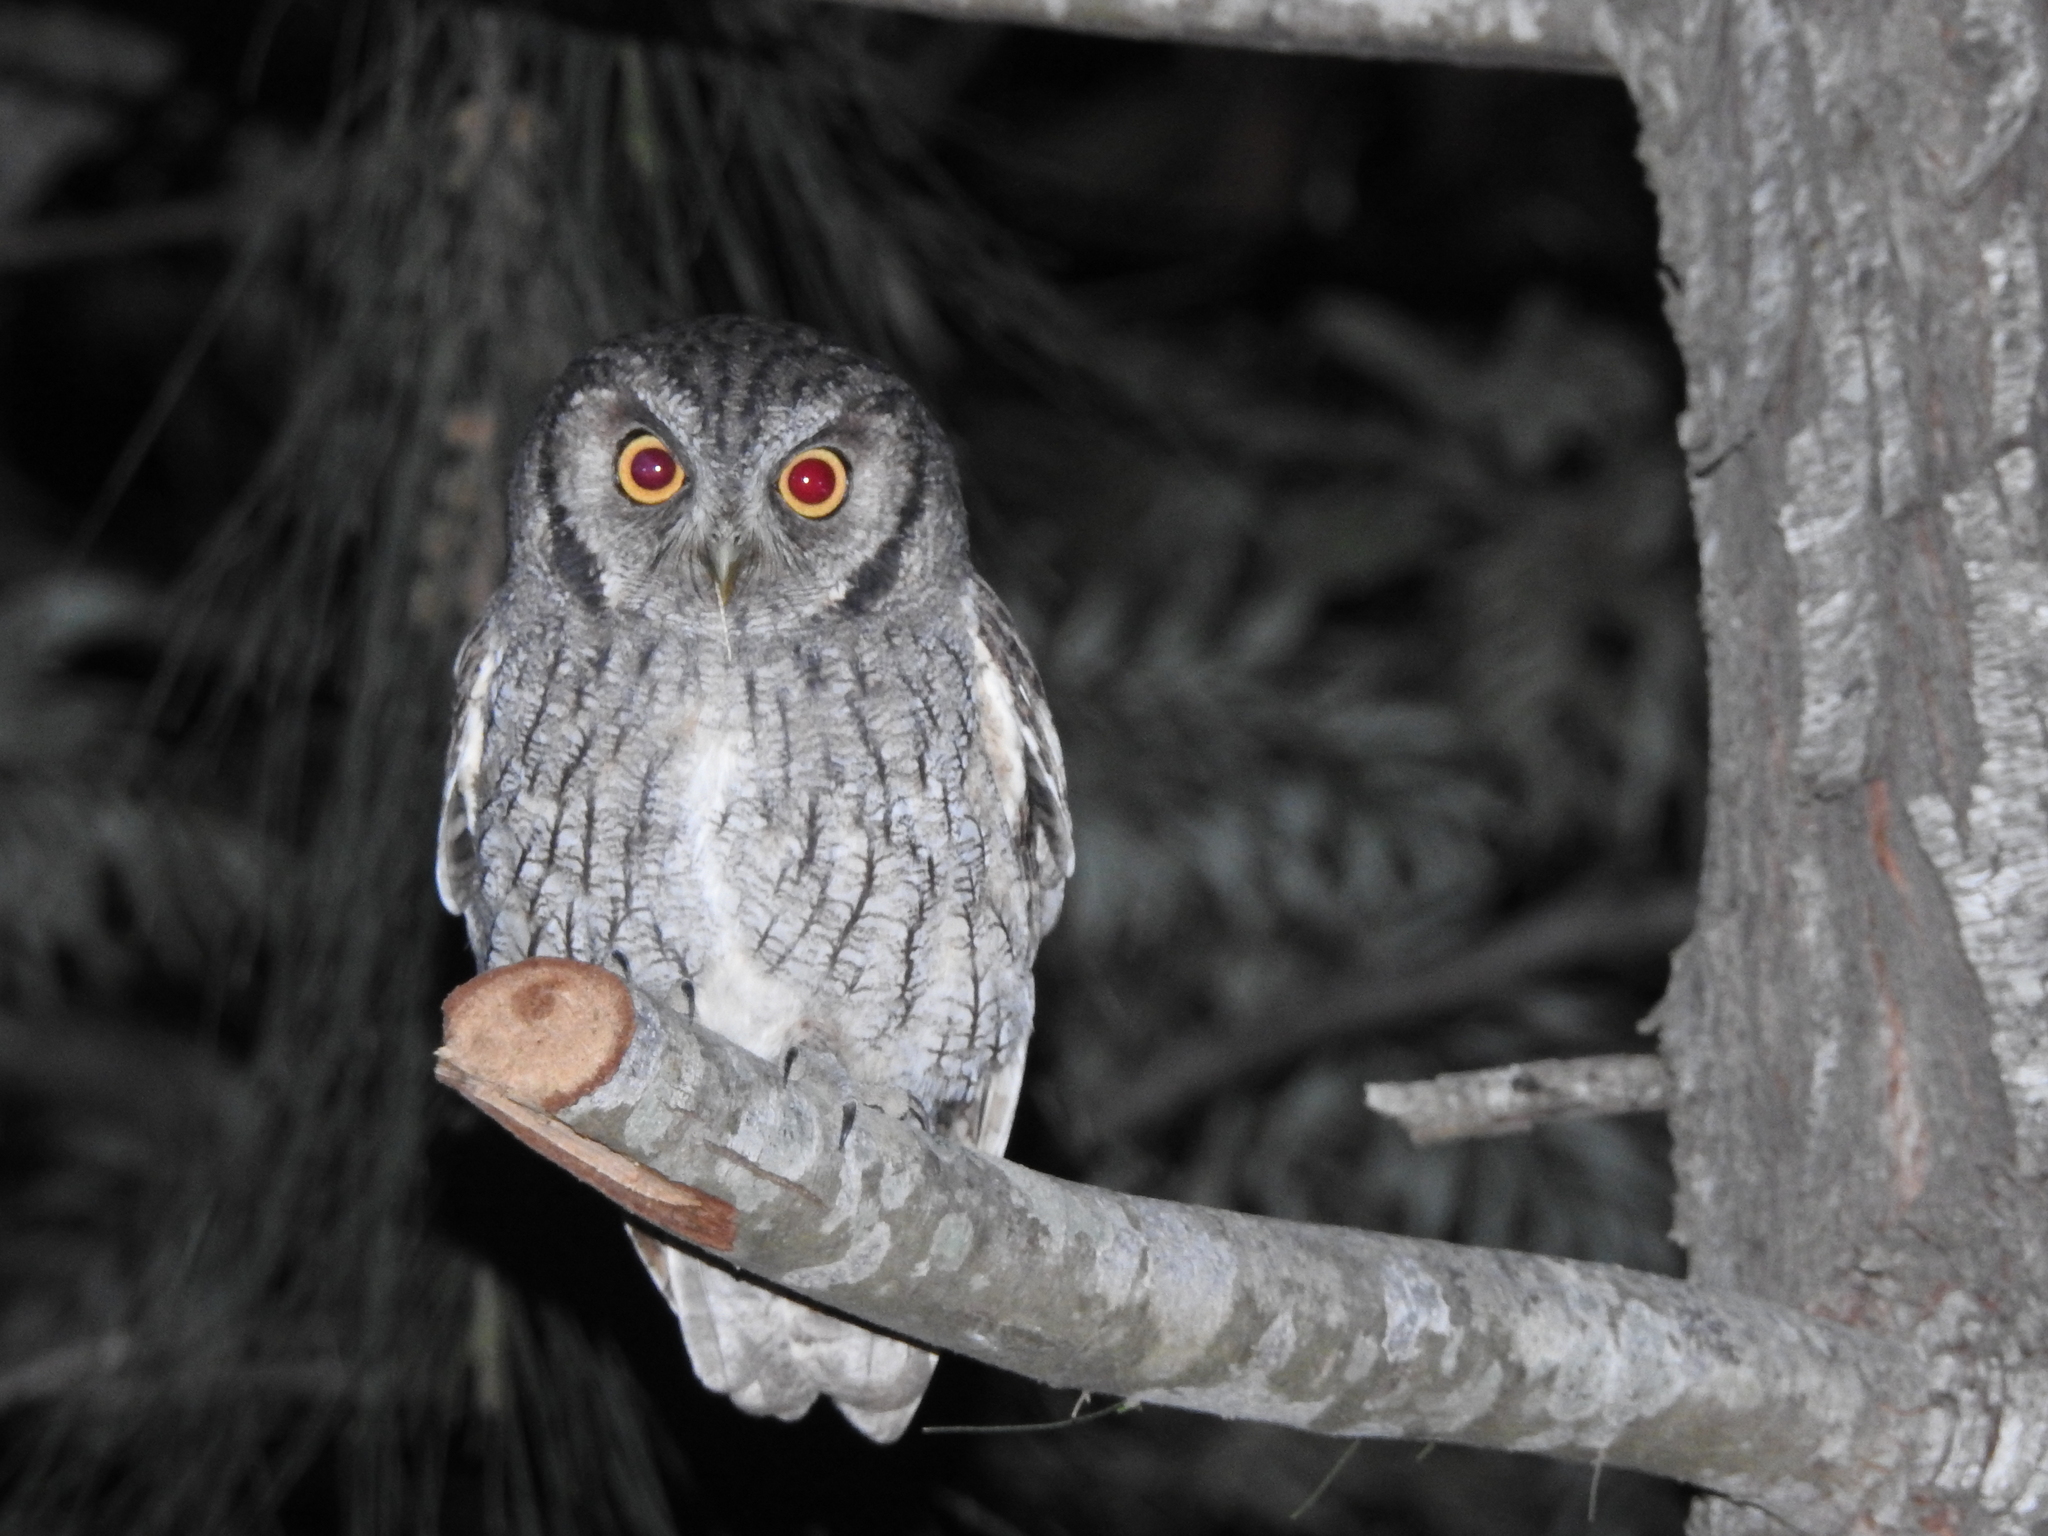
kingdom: Animalia
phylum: Chordata
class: Aves
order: Strigiformes
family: Strigidae
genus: Megascops
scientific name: Megascops choliba
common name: Tropical screech-owl
